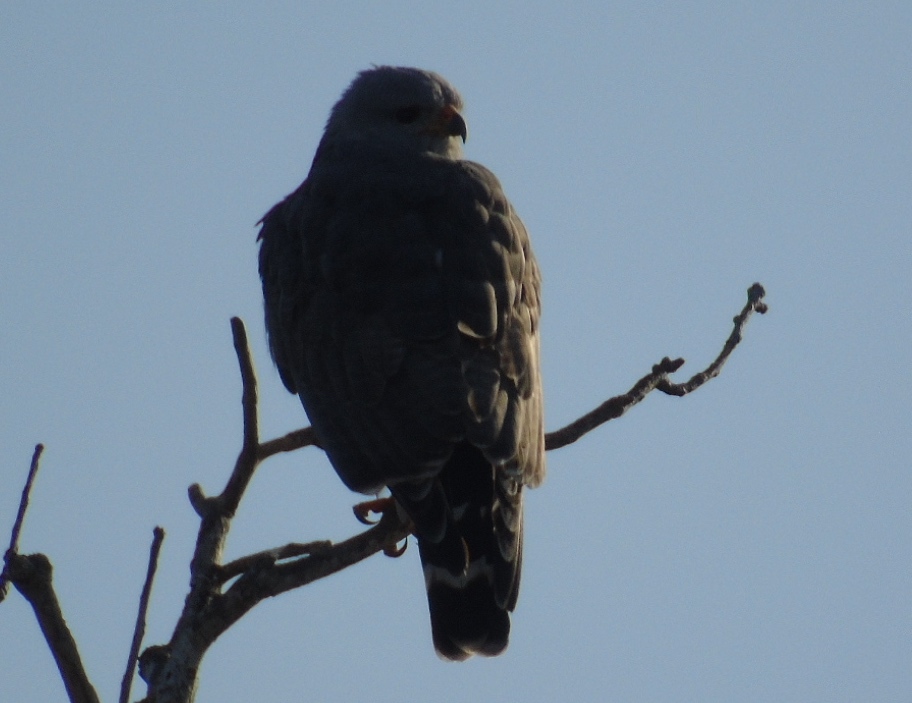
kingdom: Animalia
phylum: Chordata
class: Aves
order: Accipitriformes
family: Accipitridae
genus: Buteo
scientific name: Buteo nitidus
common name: Grey-lined hawk
